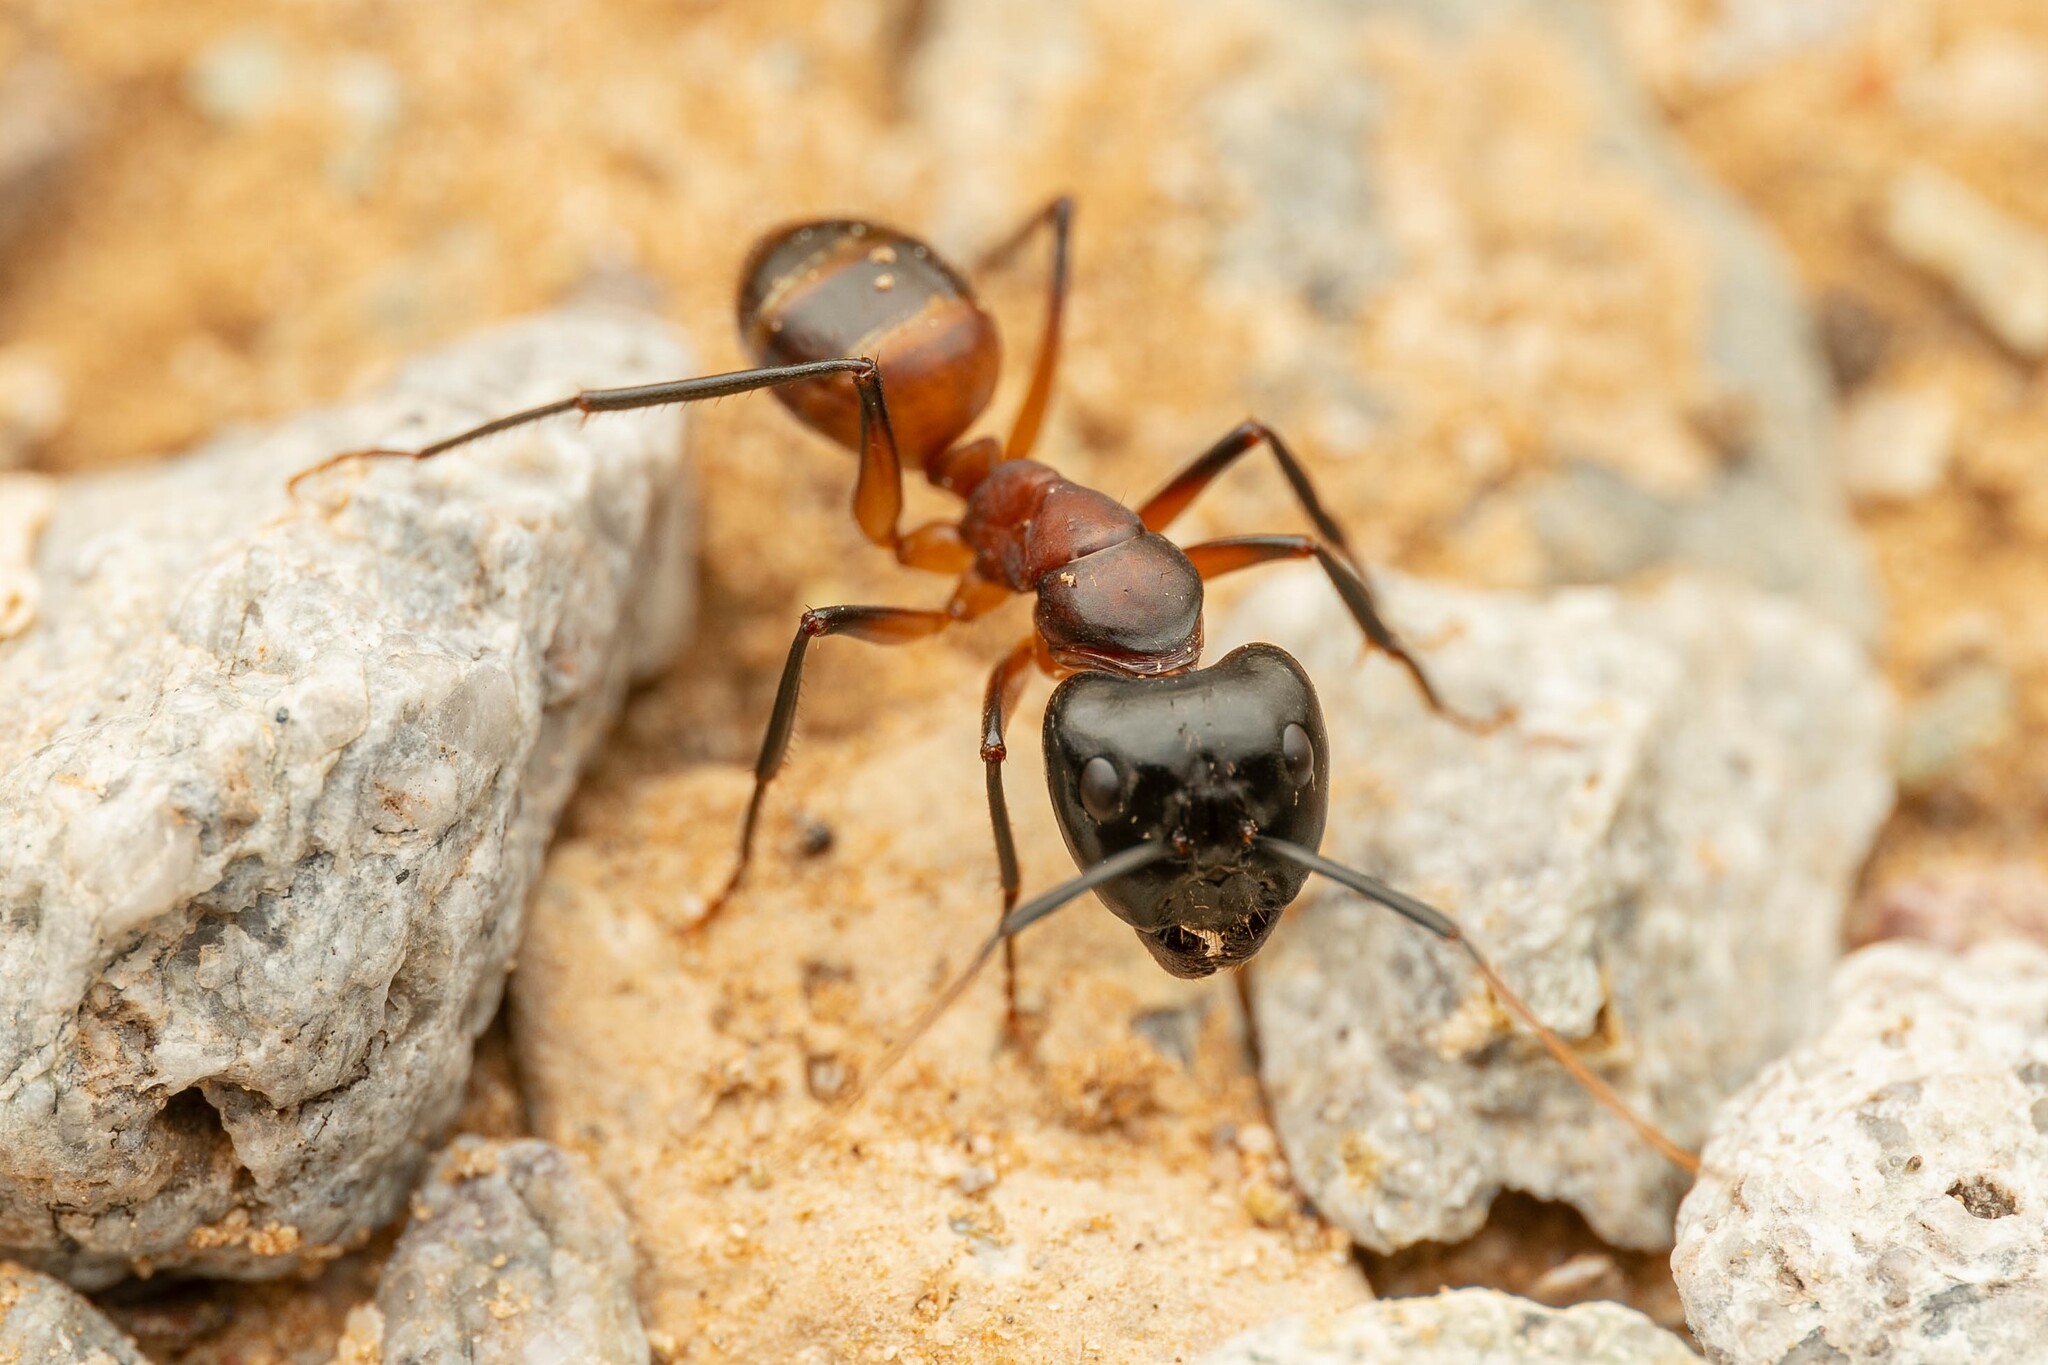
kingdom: Animalia
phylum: Arthropoda
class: Insecta
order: Hymenoptera
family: Formicidae
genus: Camponotus
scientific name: Camponotus ocreatus
